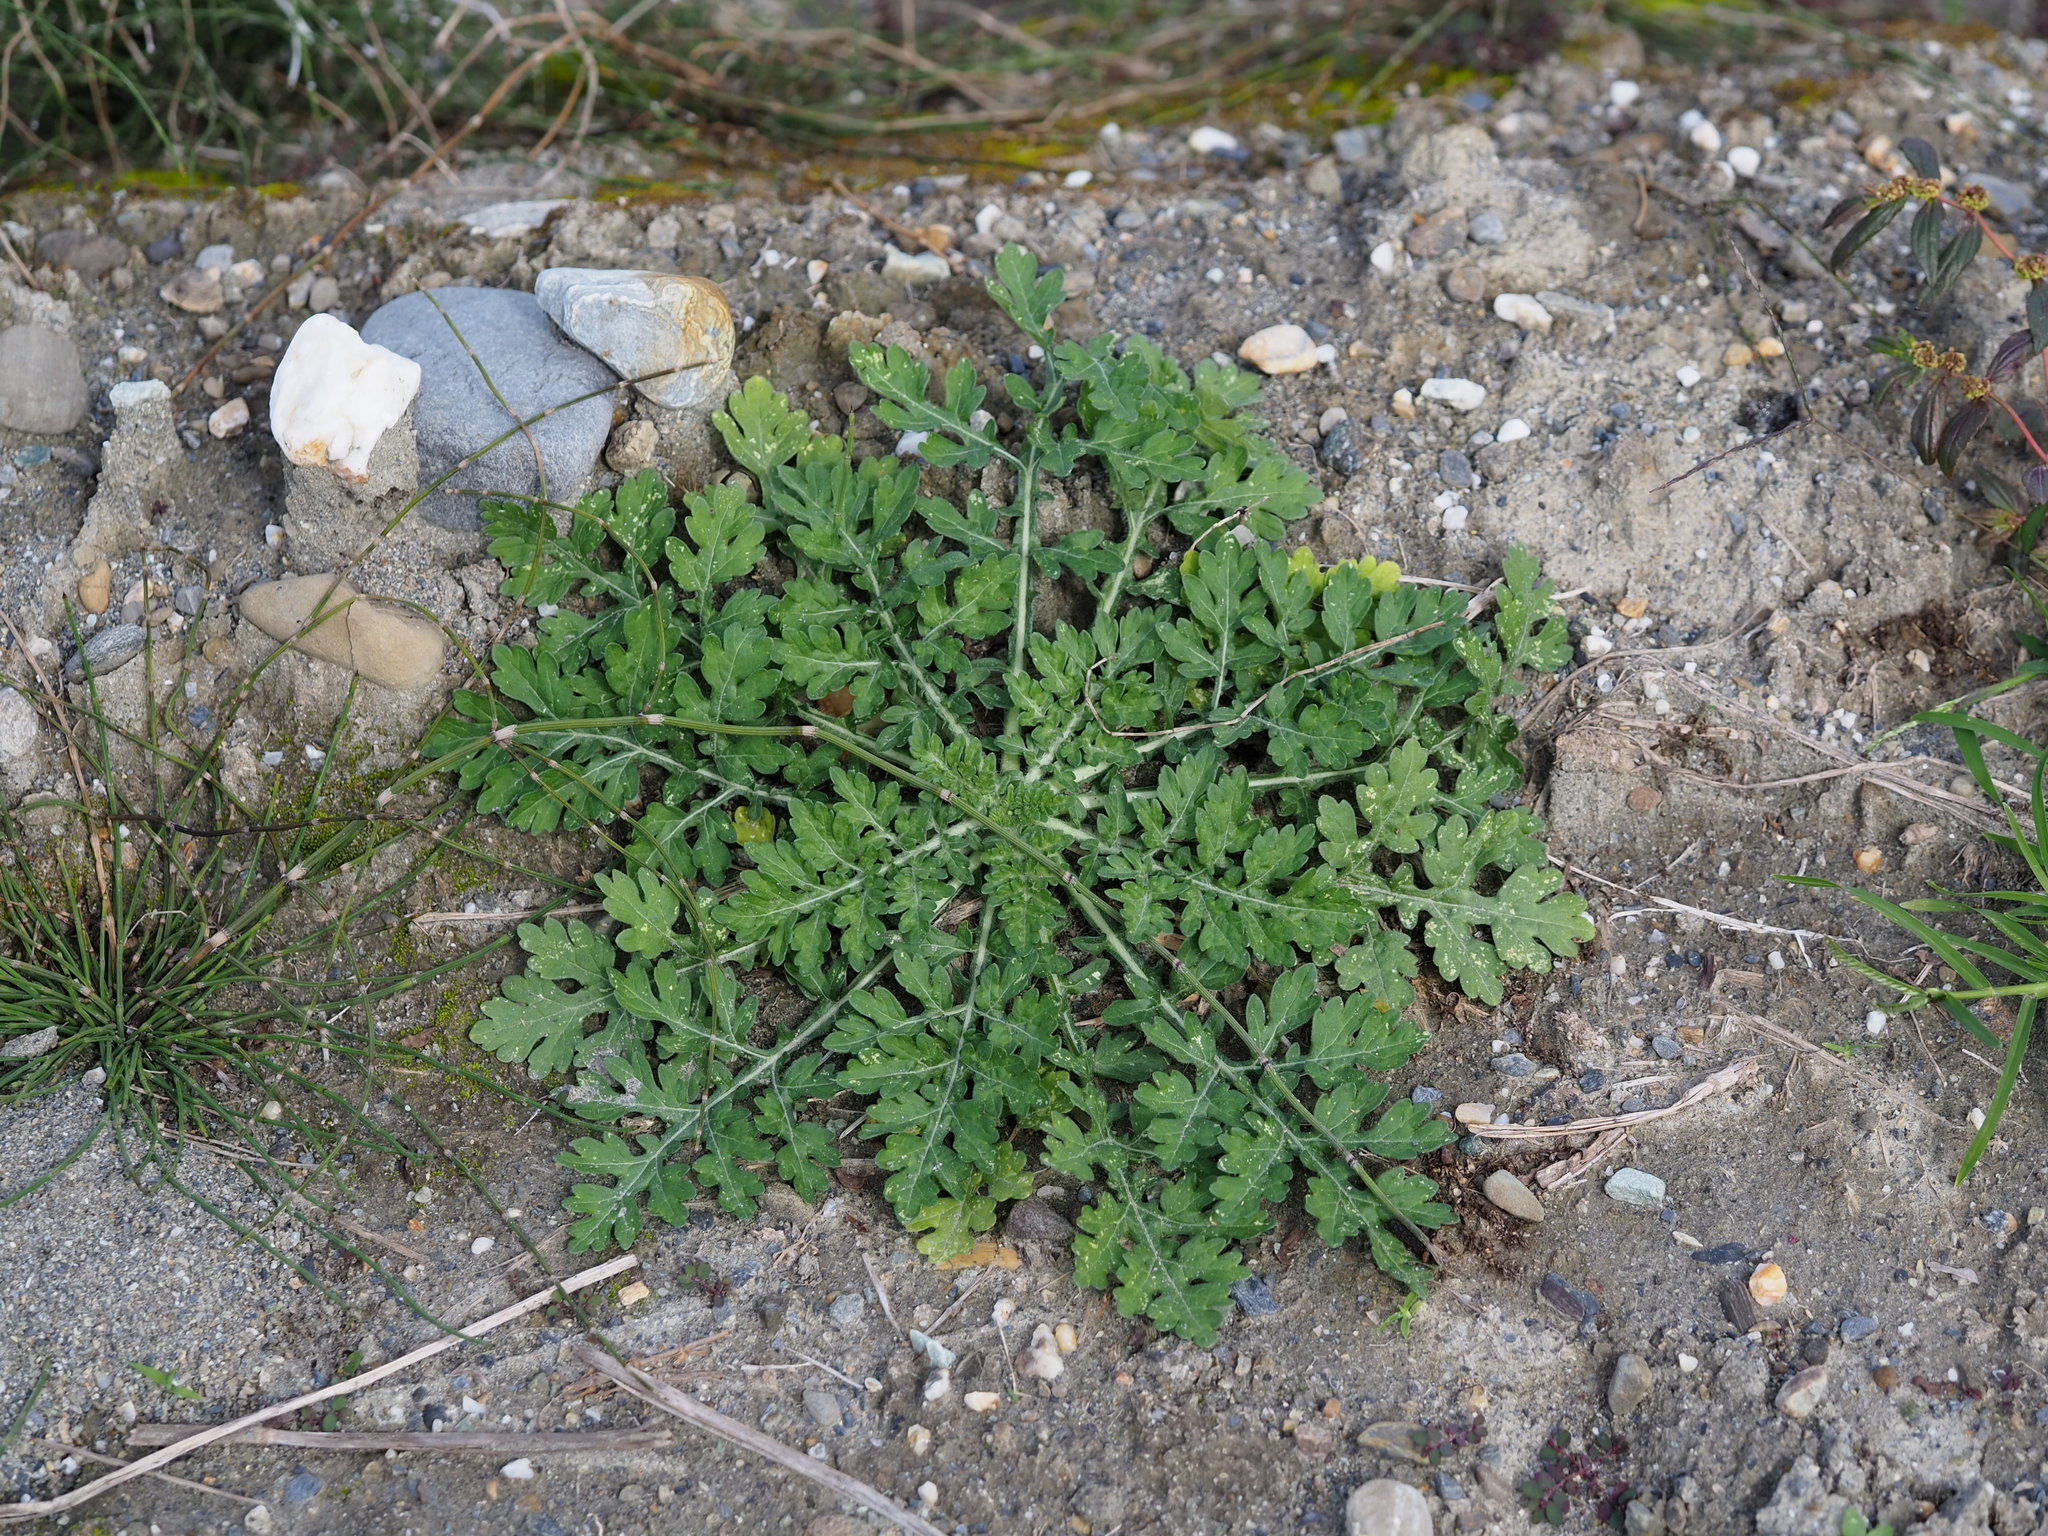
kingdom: Plantae
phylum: Tracheophyta
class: Magnoliopsida
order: Asterales
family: Asteraceae
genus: Parthenium
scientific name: Parthenium hysterophorus
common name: Santa maria feverfew
